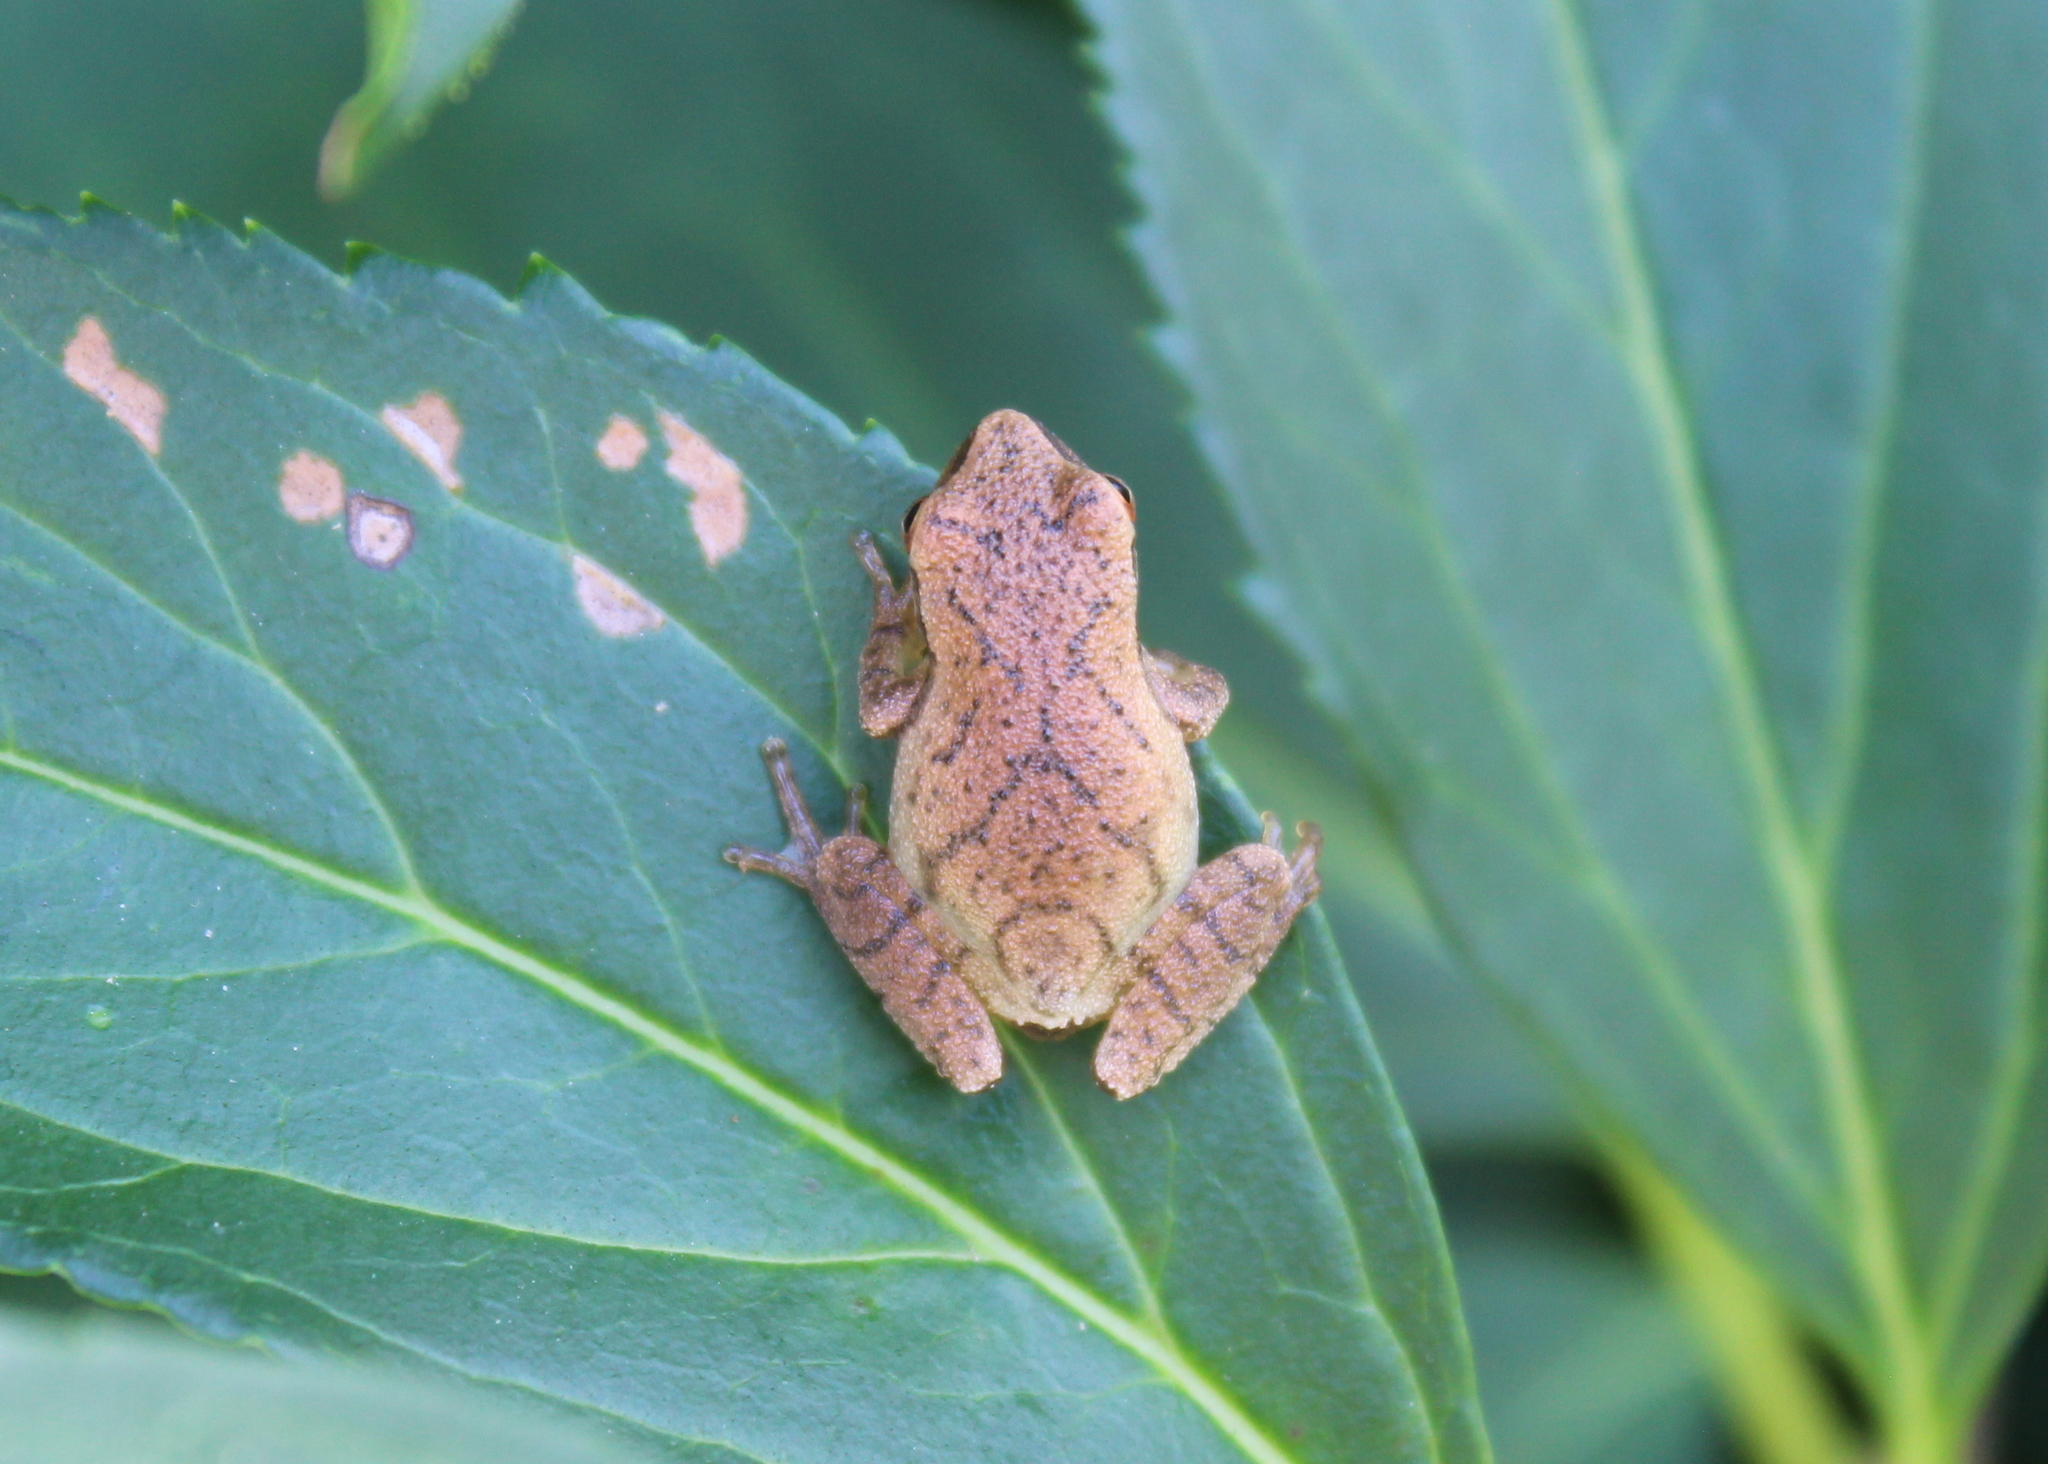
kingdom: Animalia
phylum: Chordata
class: Amphibia
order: Anura
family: Hylidae
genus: Pseudacris
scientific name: Pseudacris crucifer
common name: Spring peeper
